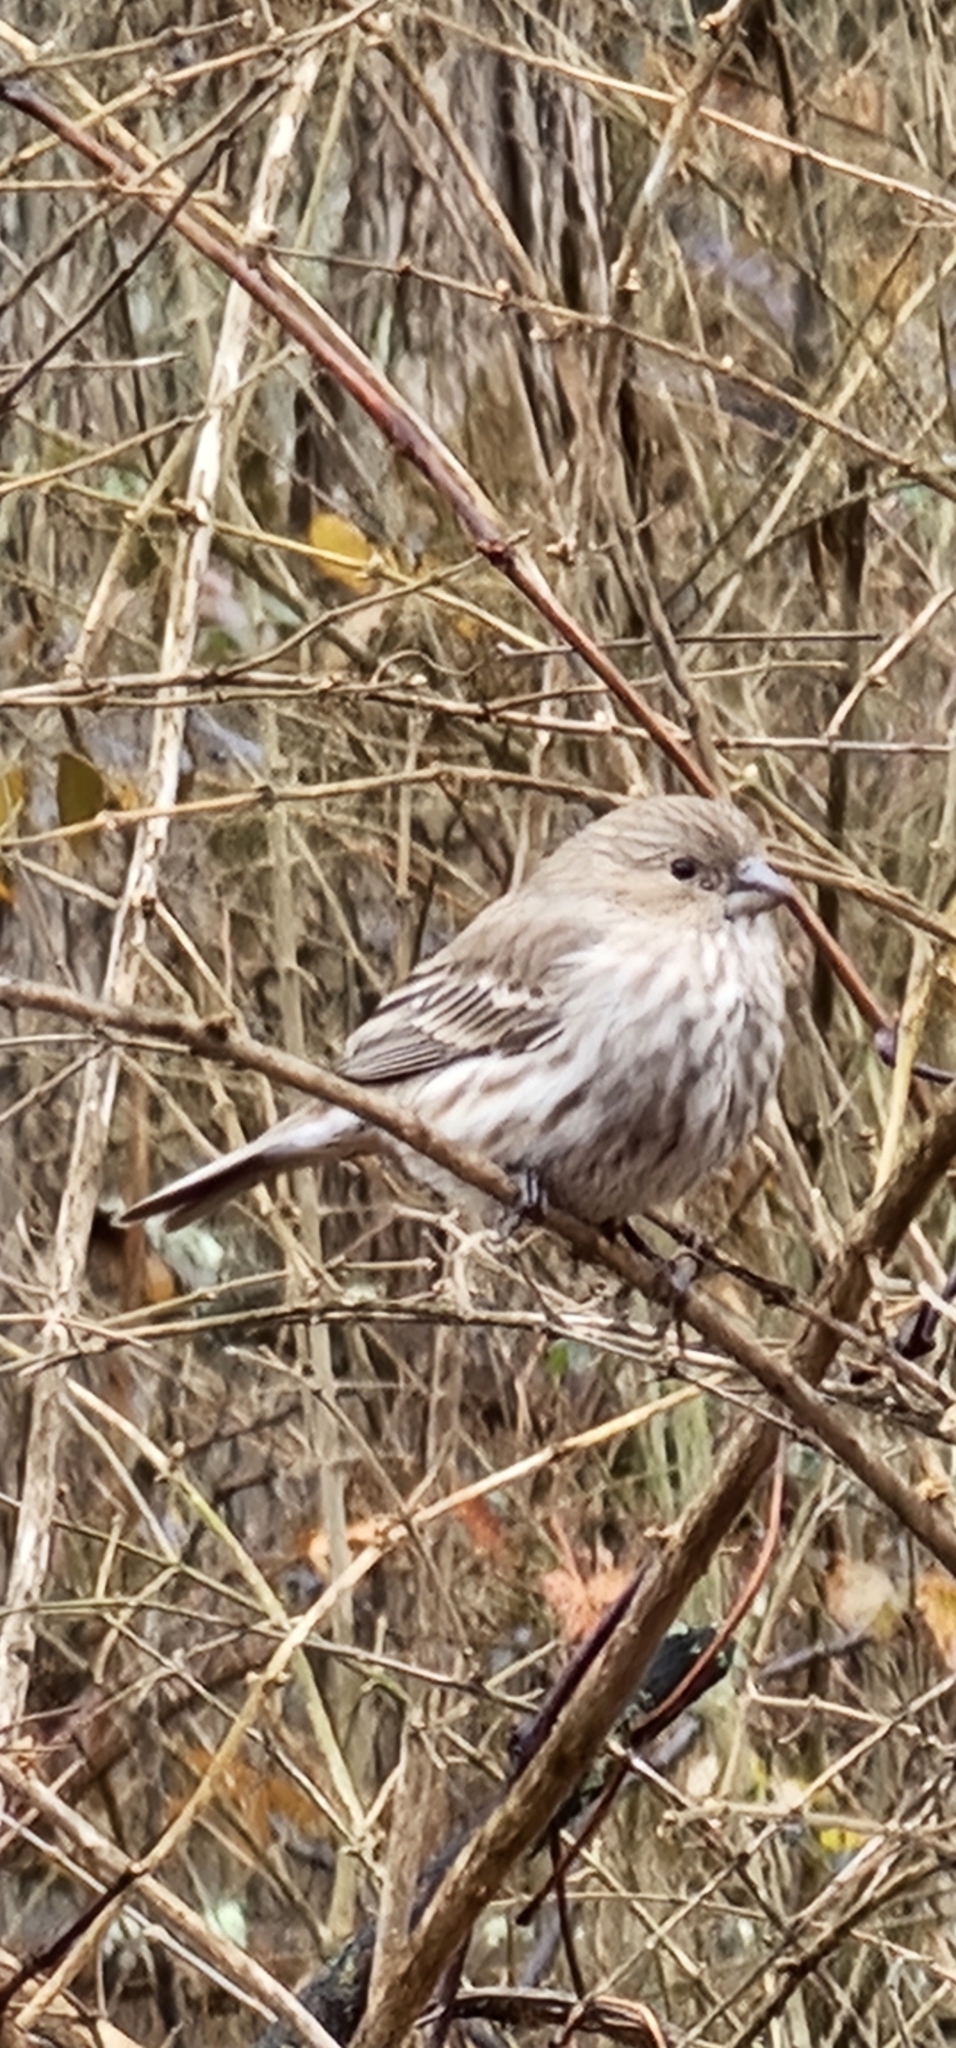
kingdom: Animalia
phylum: Chordata
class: Aves
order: Passeriformes
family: Fringillidae
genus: Haemorhous
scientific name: Haemorhous mexicanus
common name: House finch
